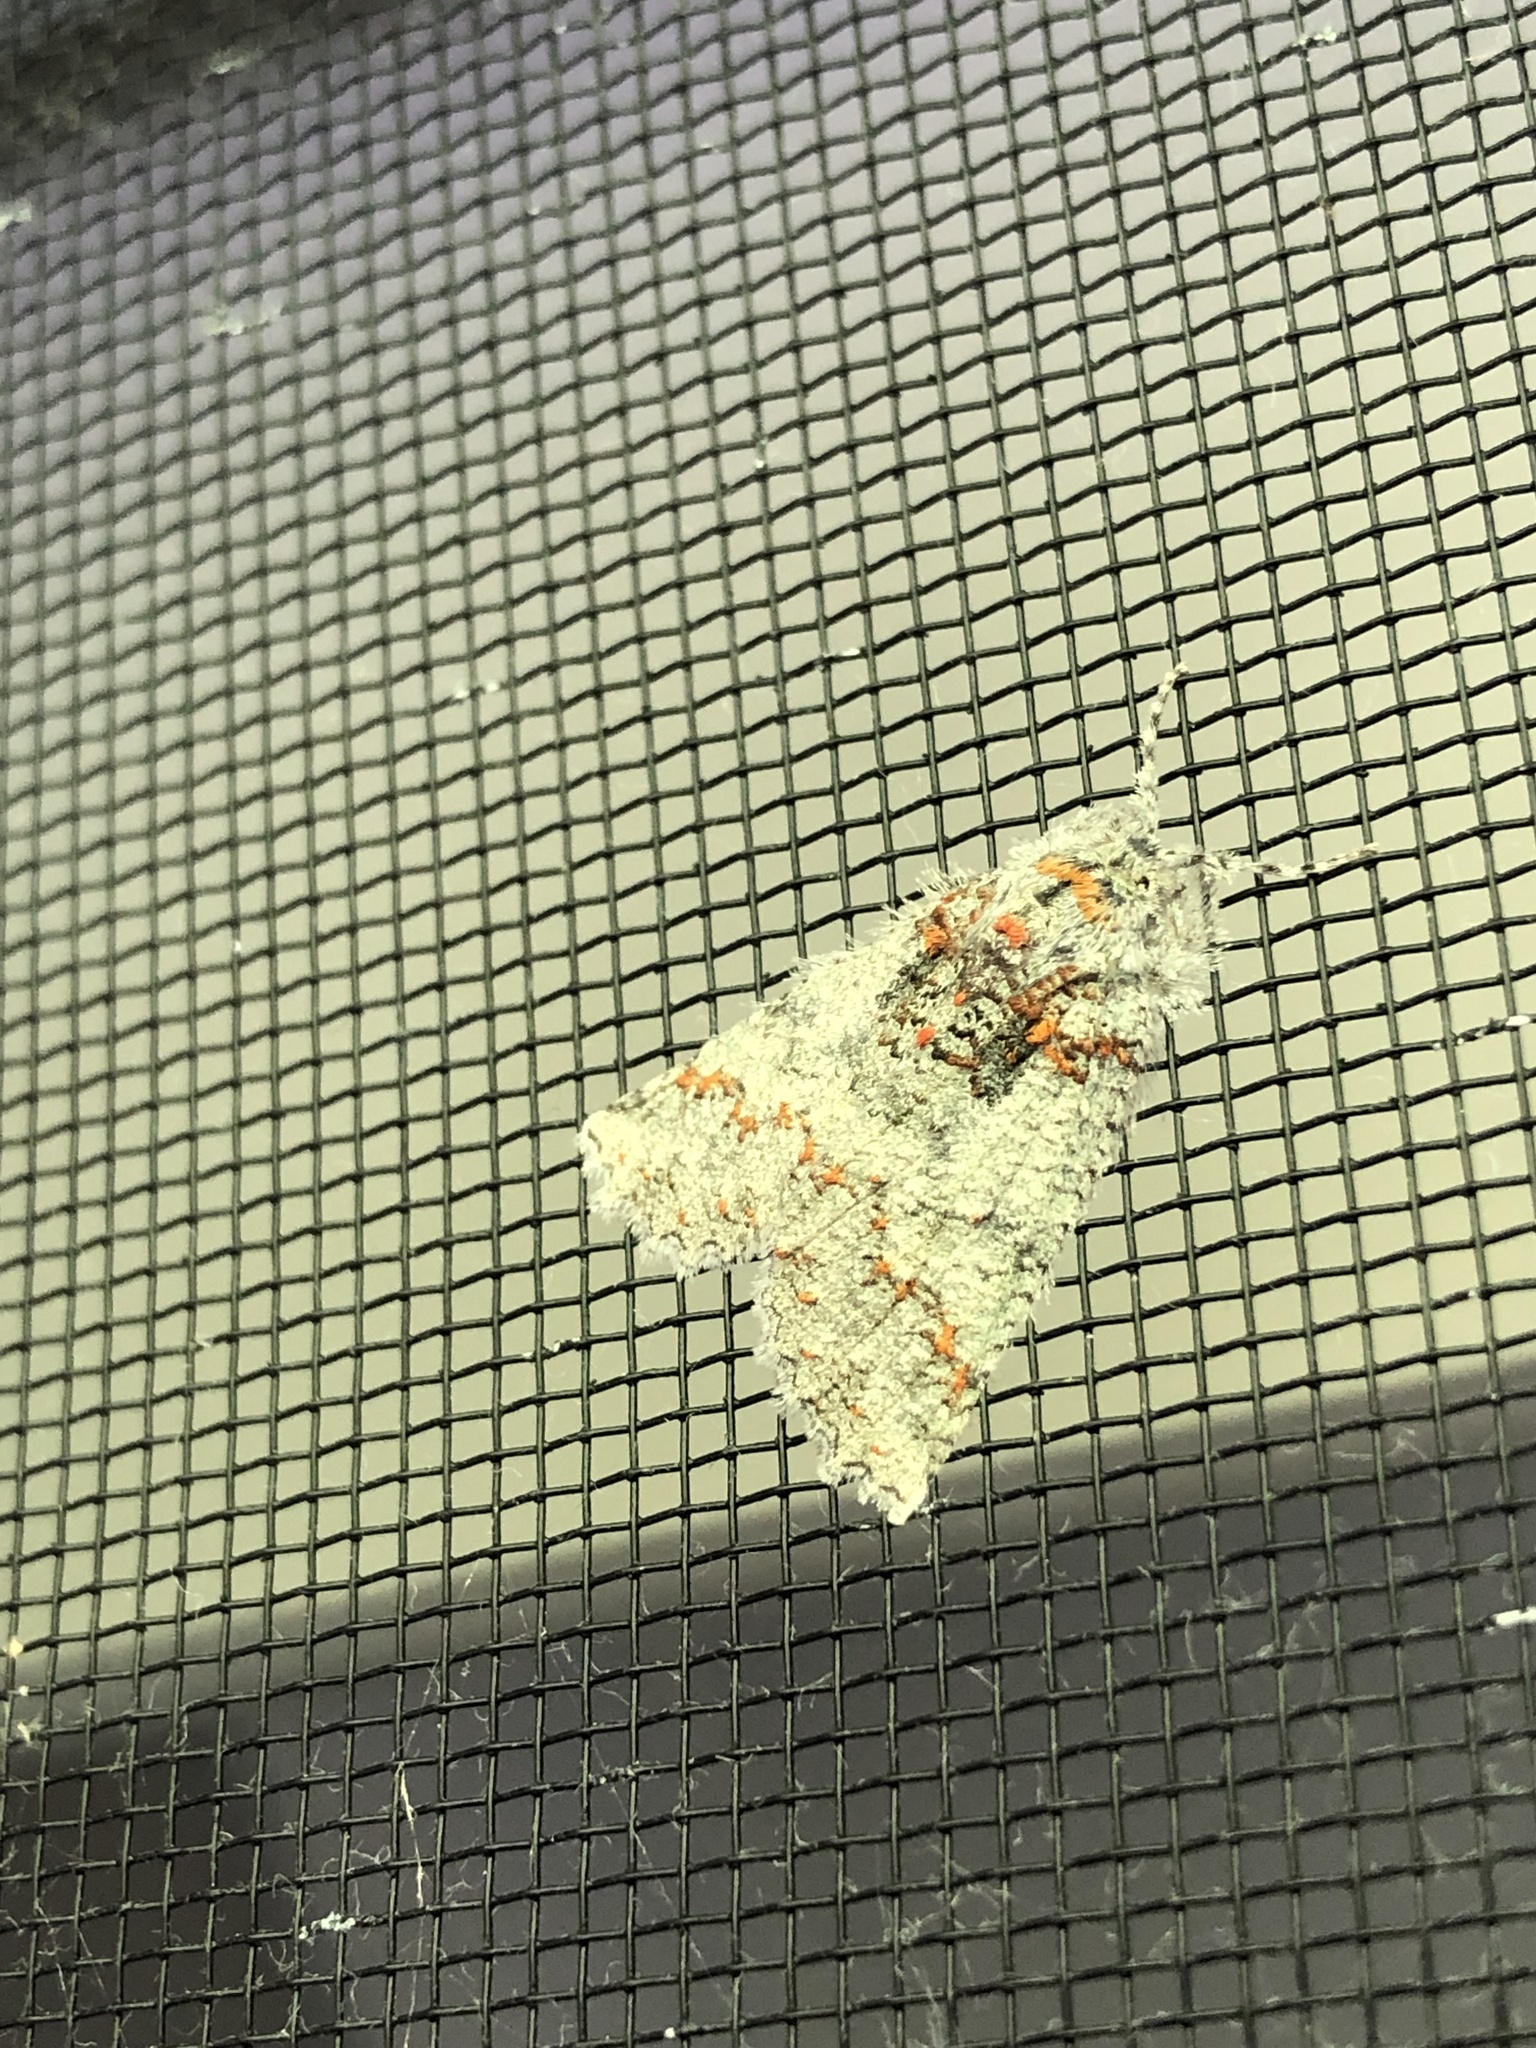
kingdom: Animalia
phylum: Arthropoda
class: Insecta
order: Lepidoptera
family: Geometridae
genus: Declana
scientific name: Declana floccosa
